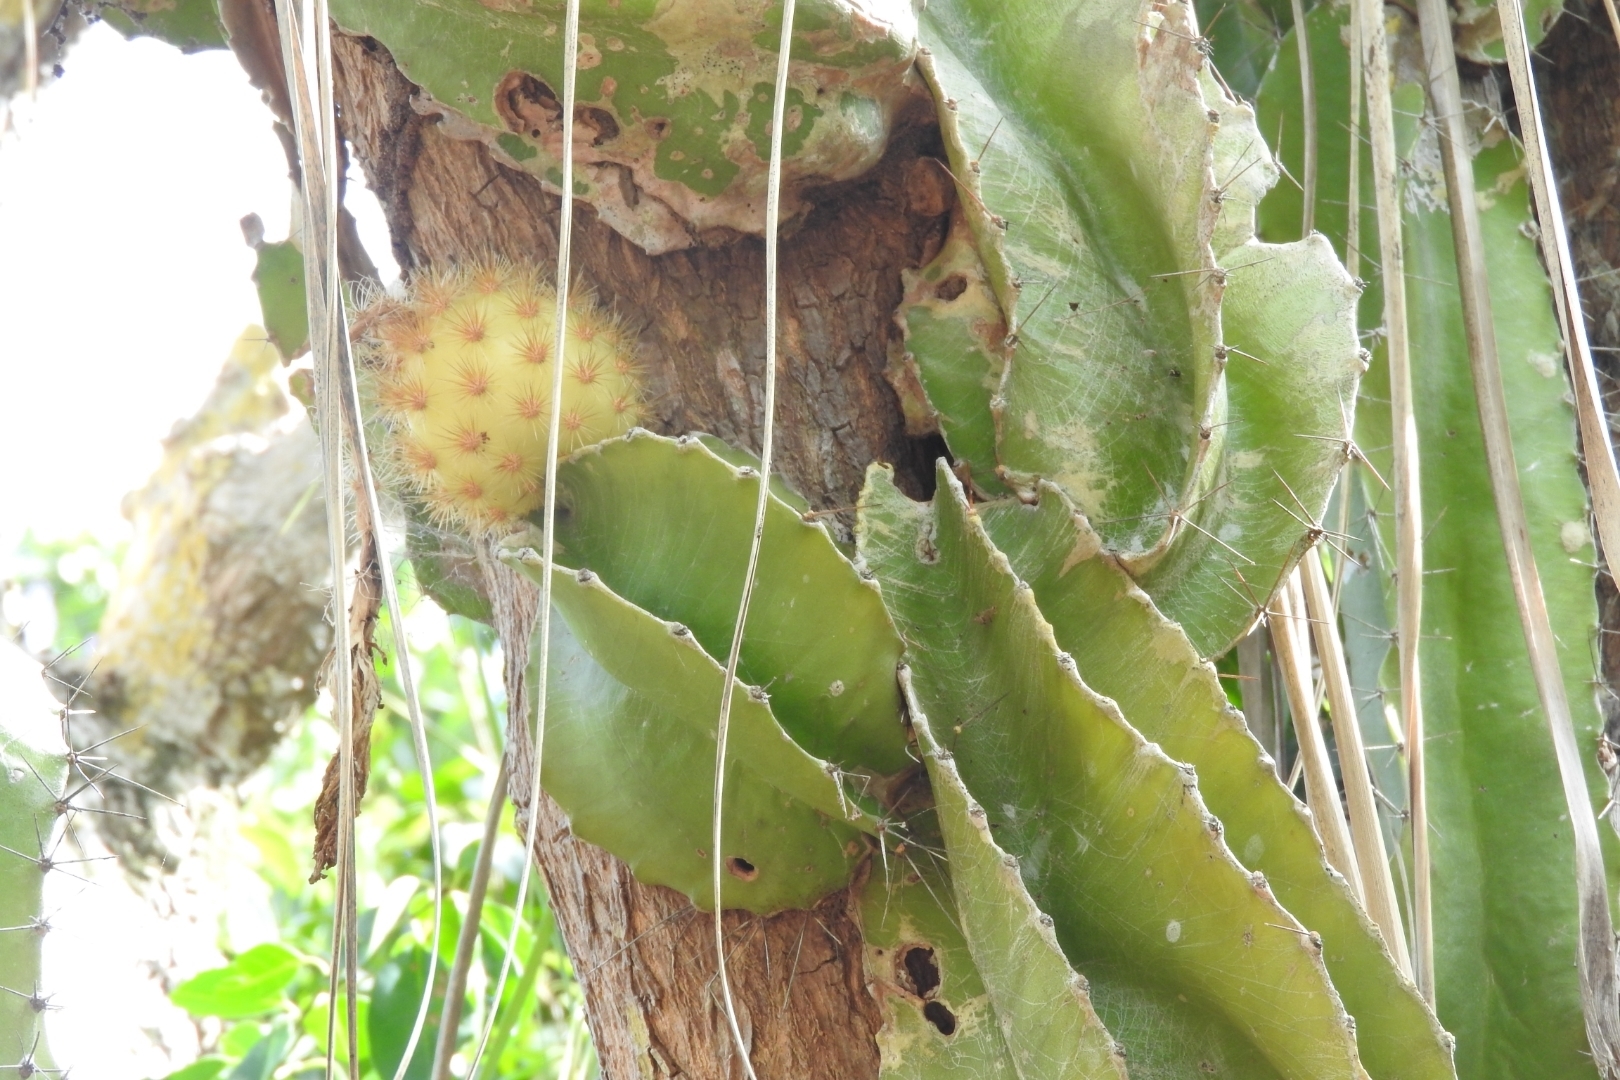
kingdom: Plantae
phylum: Tracheophyta
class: Magnoliopsida
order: Caryophyllales
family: Cactaceae
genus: Deamia
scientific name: Deamia testudo
